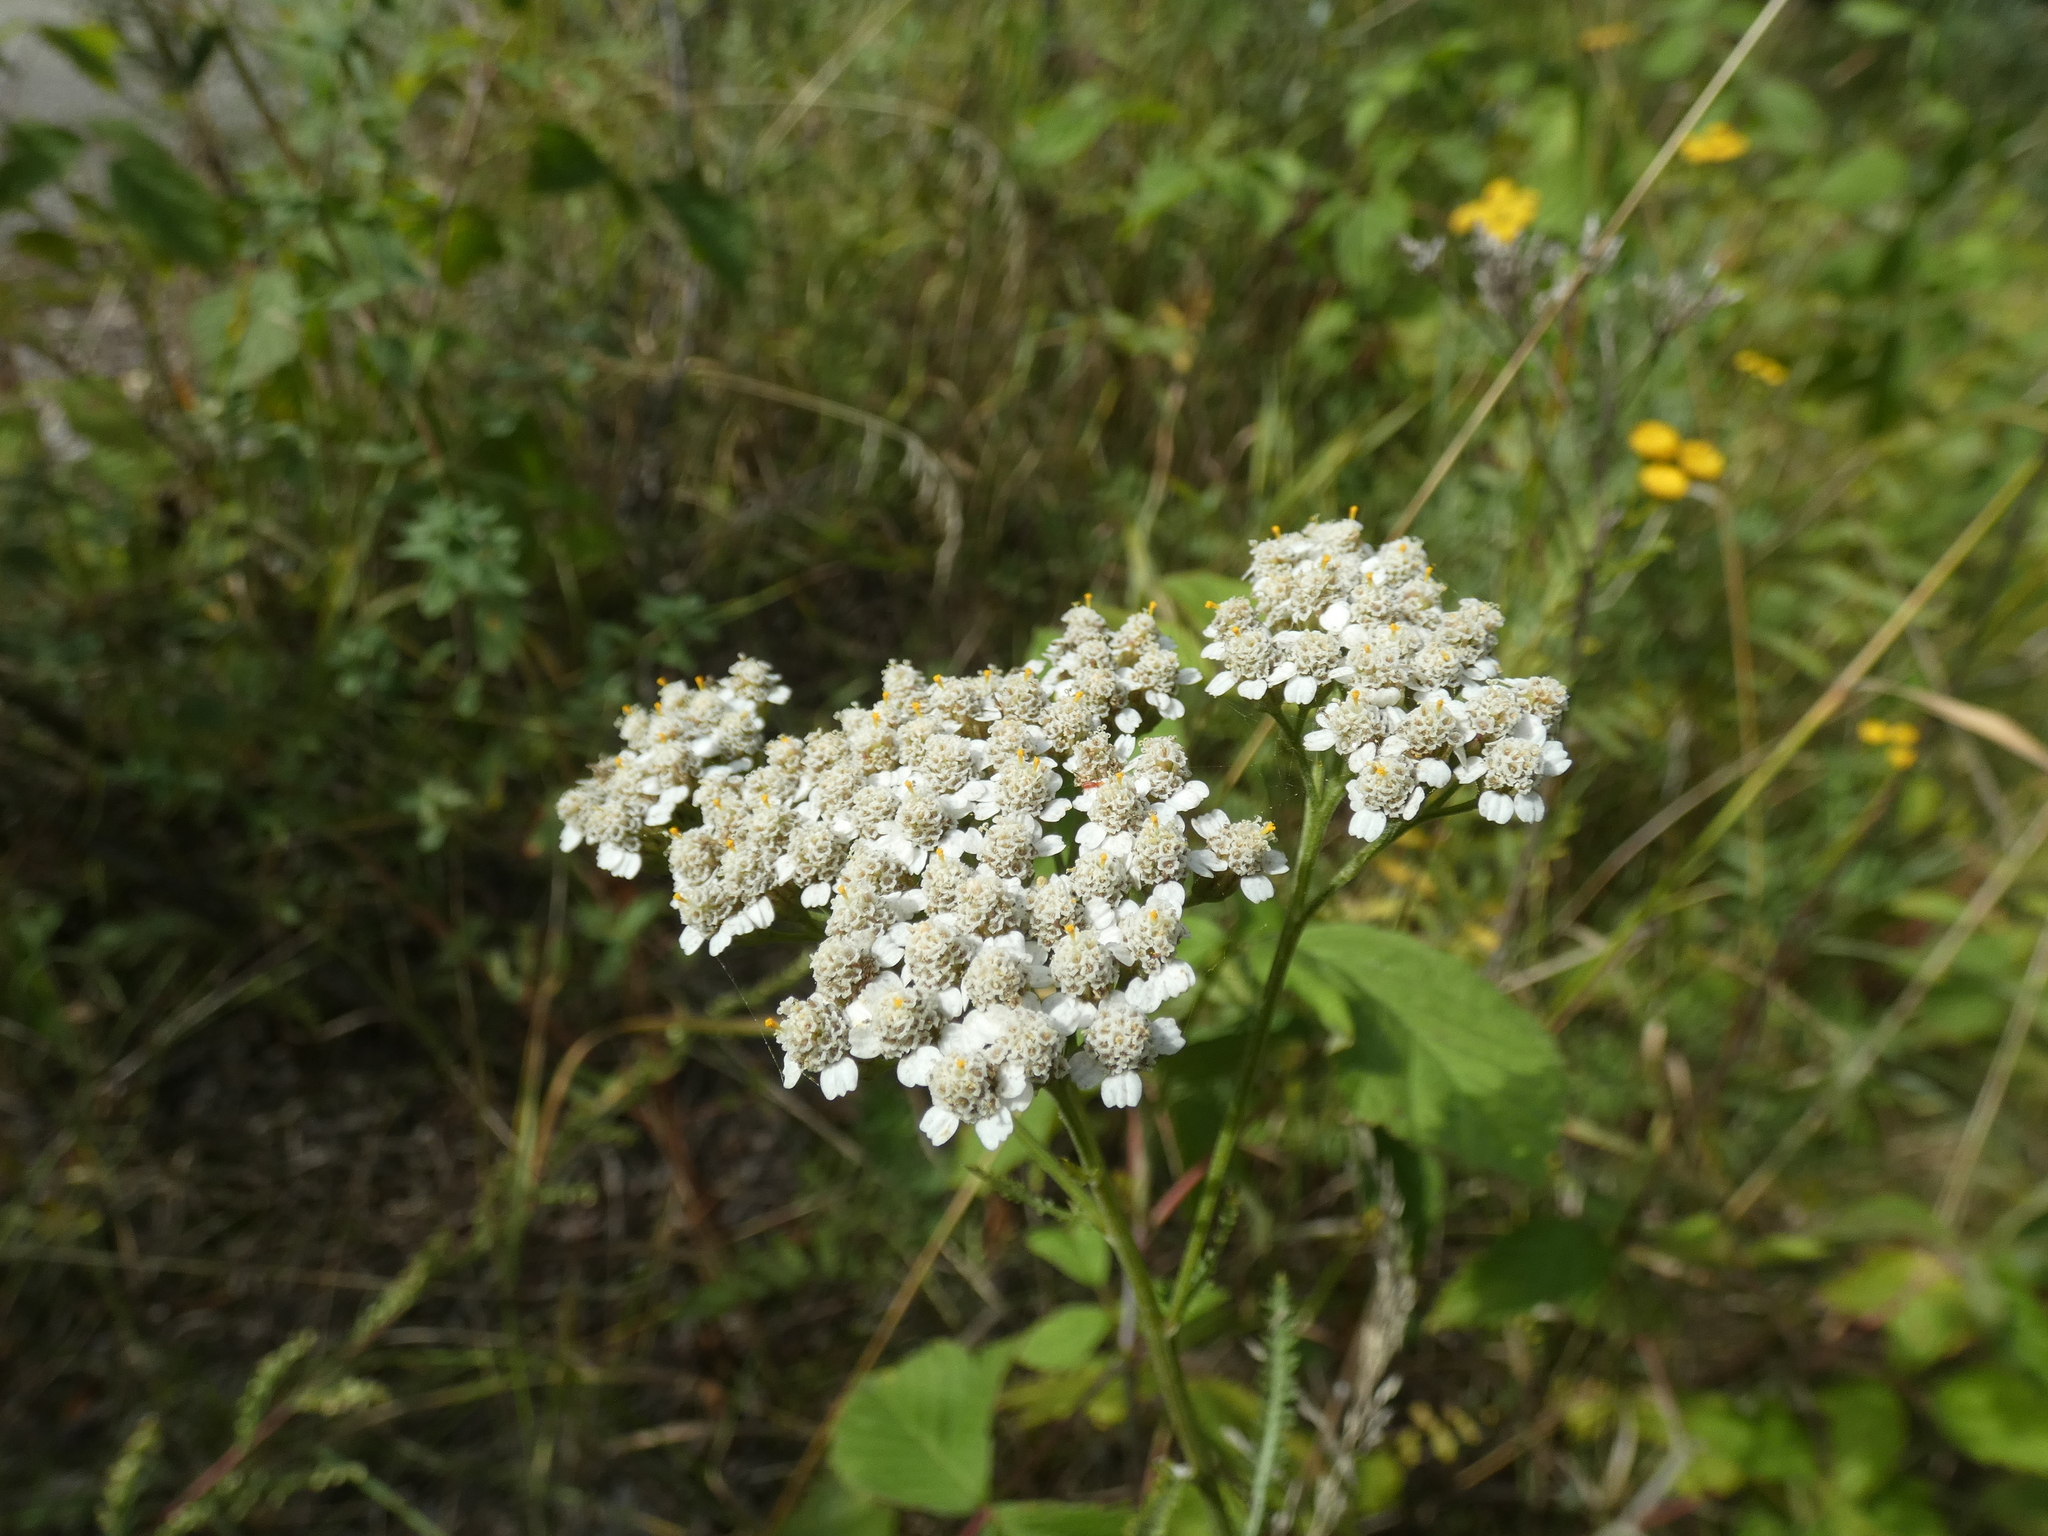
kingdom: Plantae
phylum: Tracheophyta
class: Magnoliopsida
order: Asterales
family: Asteraceae
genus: Achillea
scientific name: Achillea millefolium
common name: Yarrow
